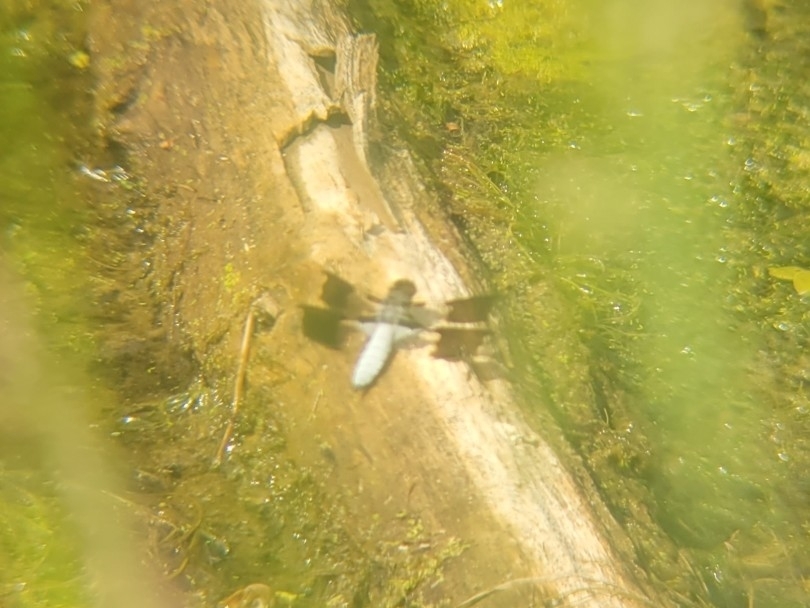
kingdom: Animalia
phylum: Arthropoda
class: Insecta
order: Odonata
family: Libellulidae
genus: Plathemis
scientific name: Plathemis lydia
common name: Common whitetail
